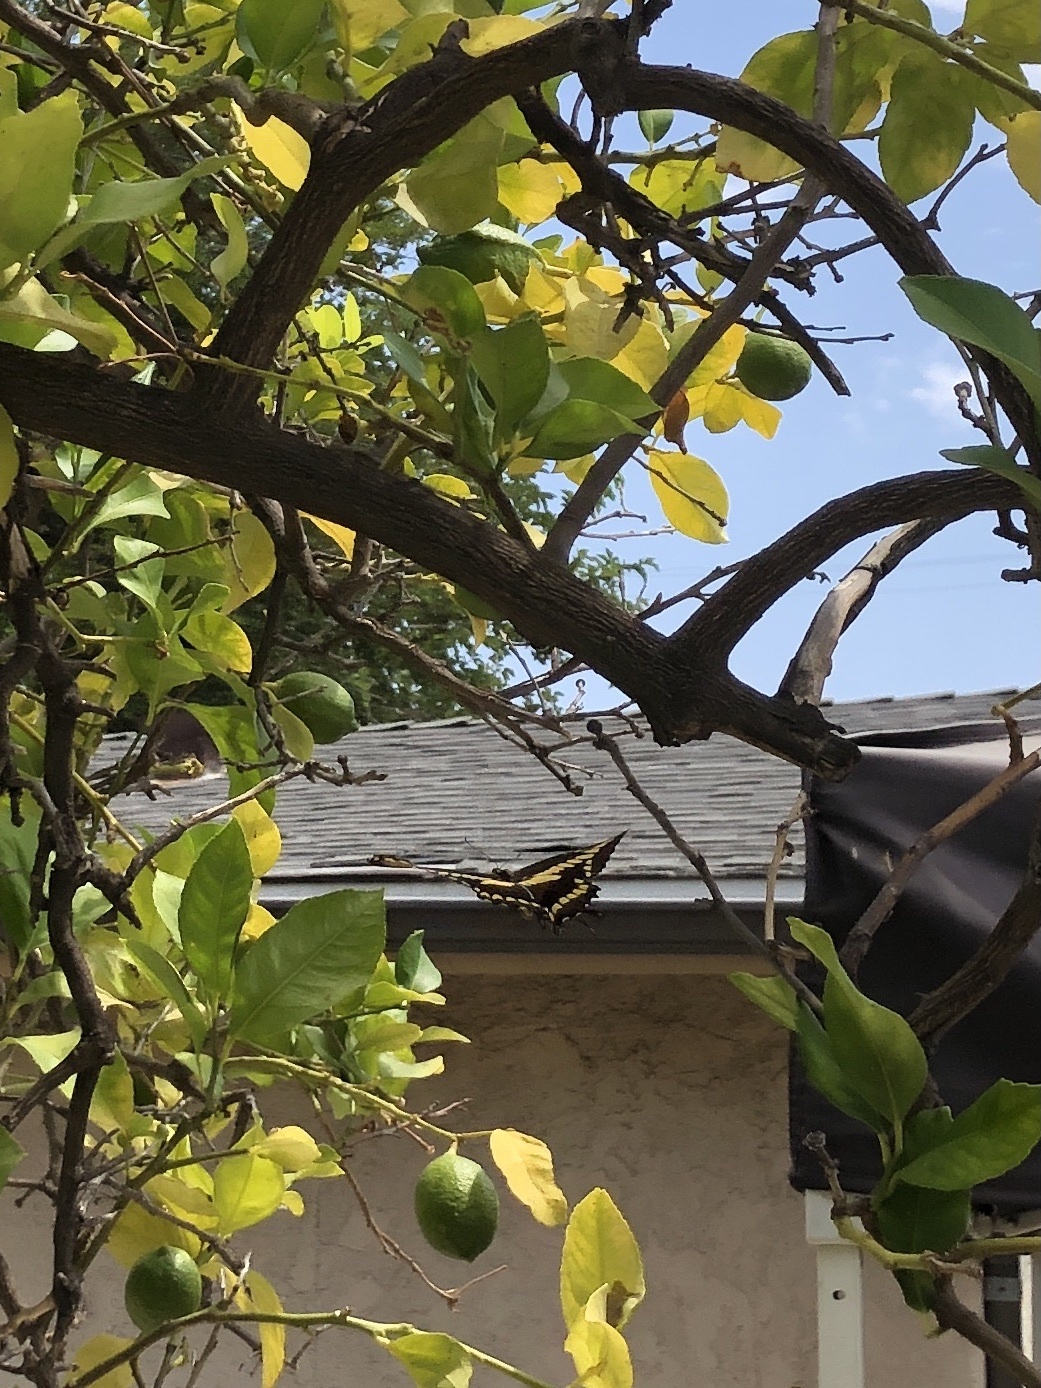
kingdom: Animalia
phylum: Arthropoda
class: Insecta
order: Lepidoptera
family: Papilionidae
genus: Papilio
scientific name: Papilio rumiko
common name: Western giant swallowtail
